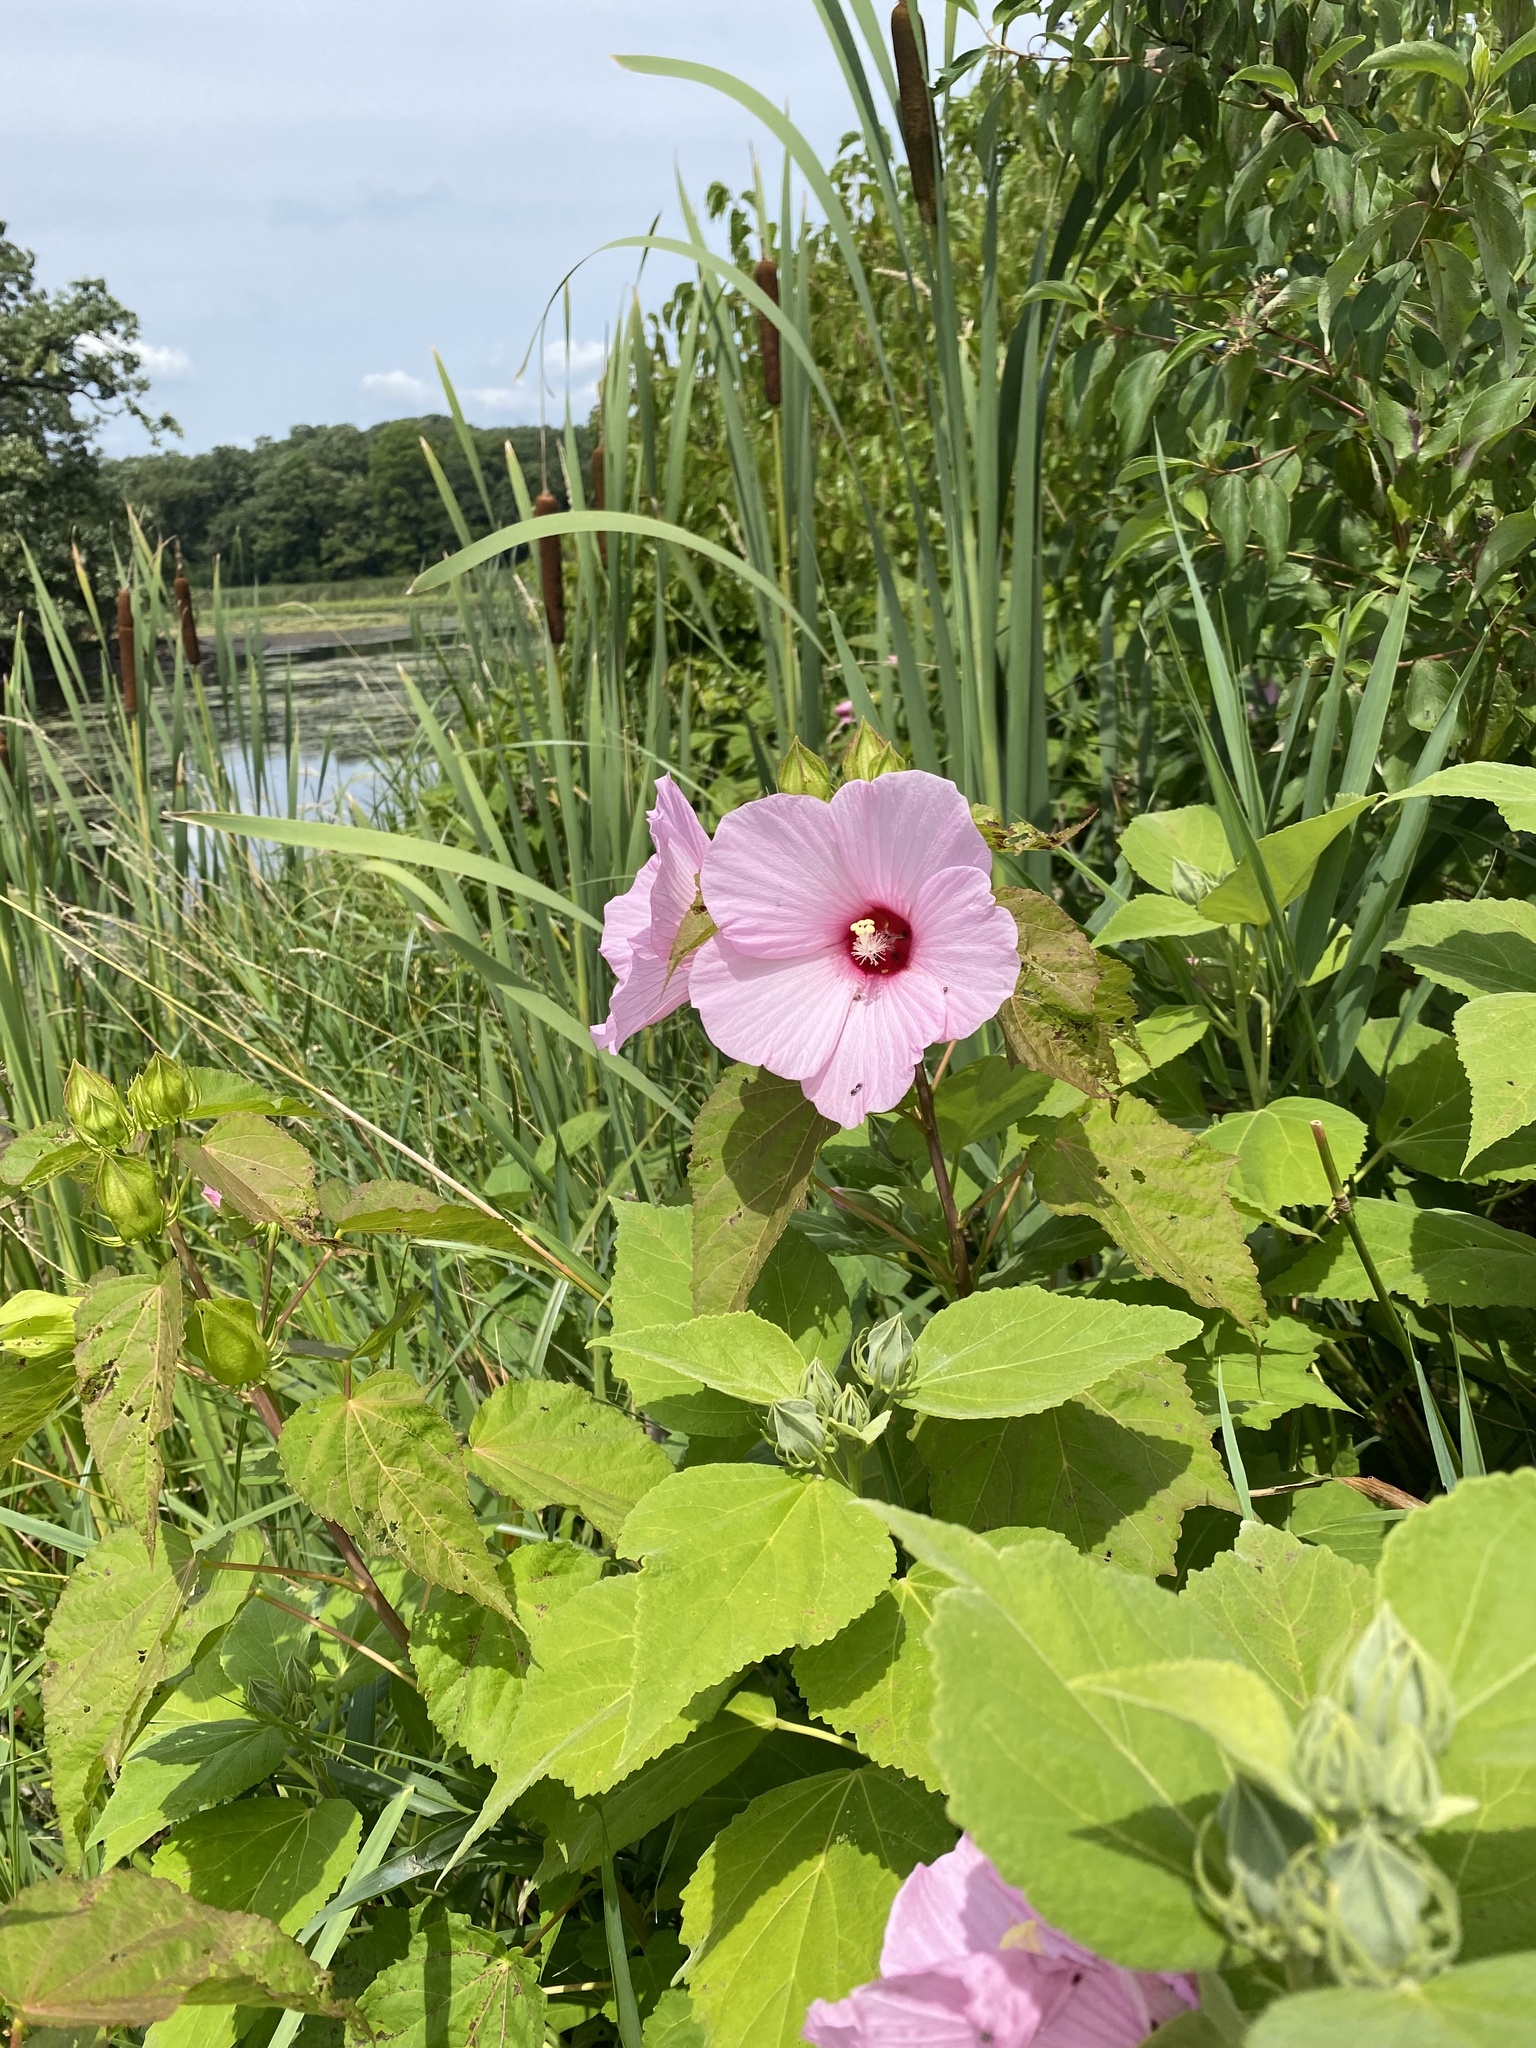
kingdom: Plantae
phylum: Tracheophyta
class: Magnoliopsida
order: Malvales
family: Malvaceae
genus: Hibiscus
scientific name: Hibiscus moscheutos
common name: Common rose-mallow
